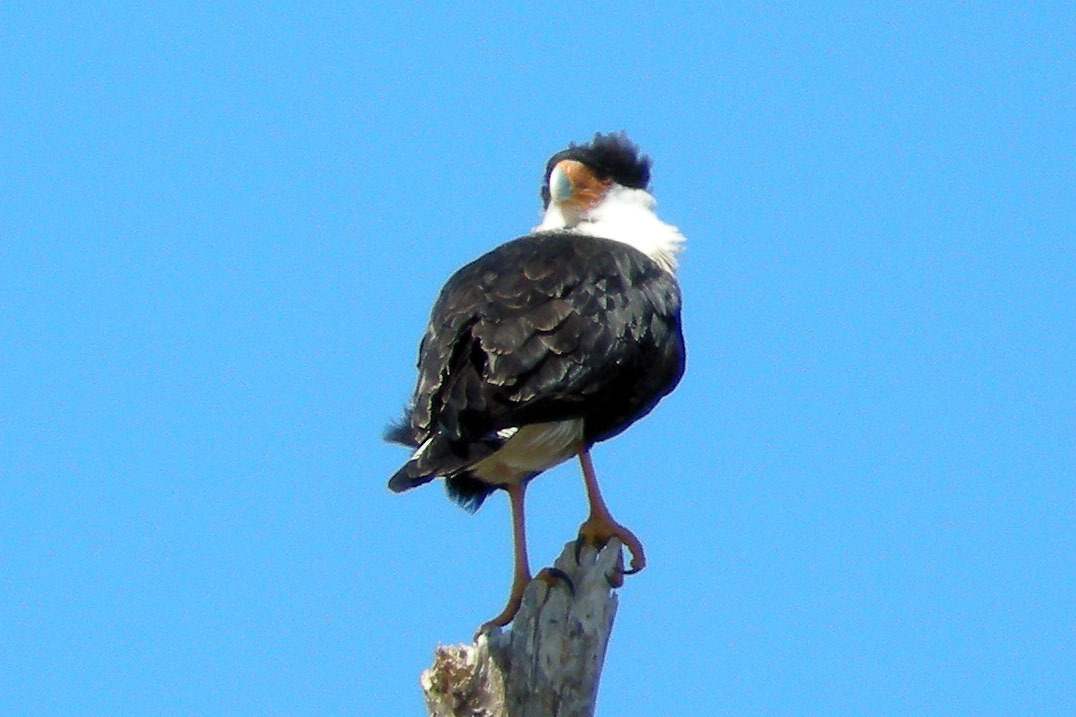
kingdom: Animalia
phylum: Chordata
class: Aves
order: Falconiformes
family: Falconidae
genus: Caracara
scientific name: Caracara plancus
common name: Southern caracara
